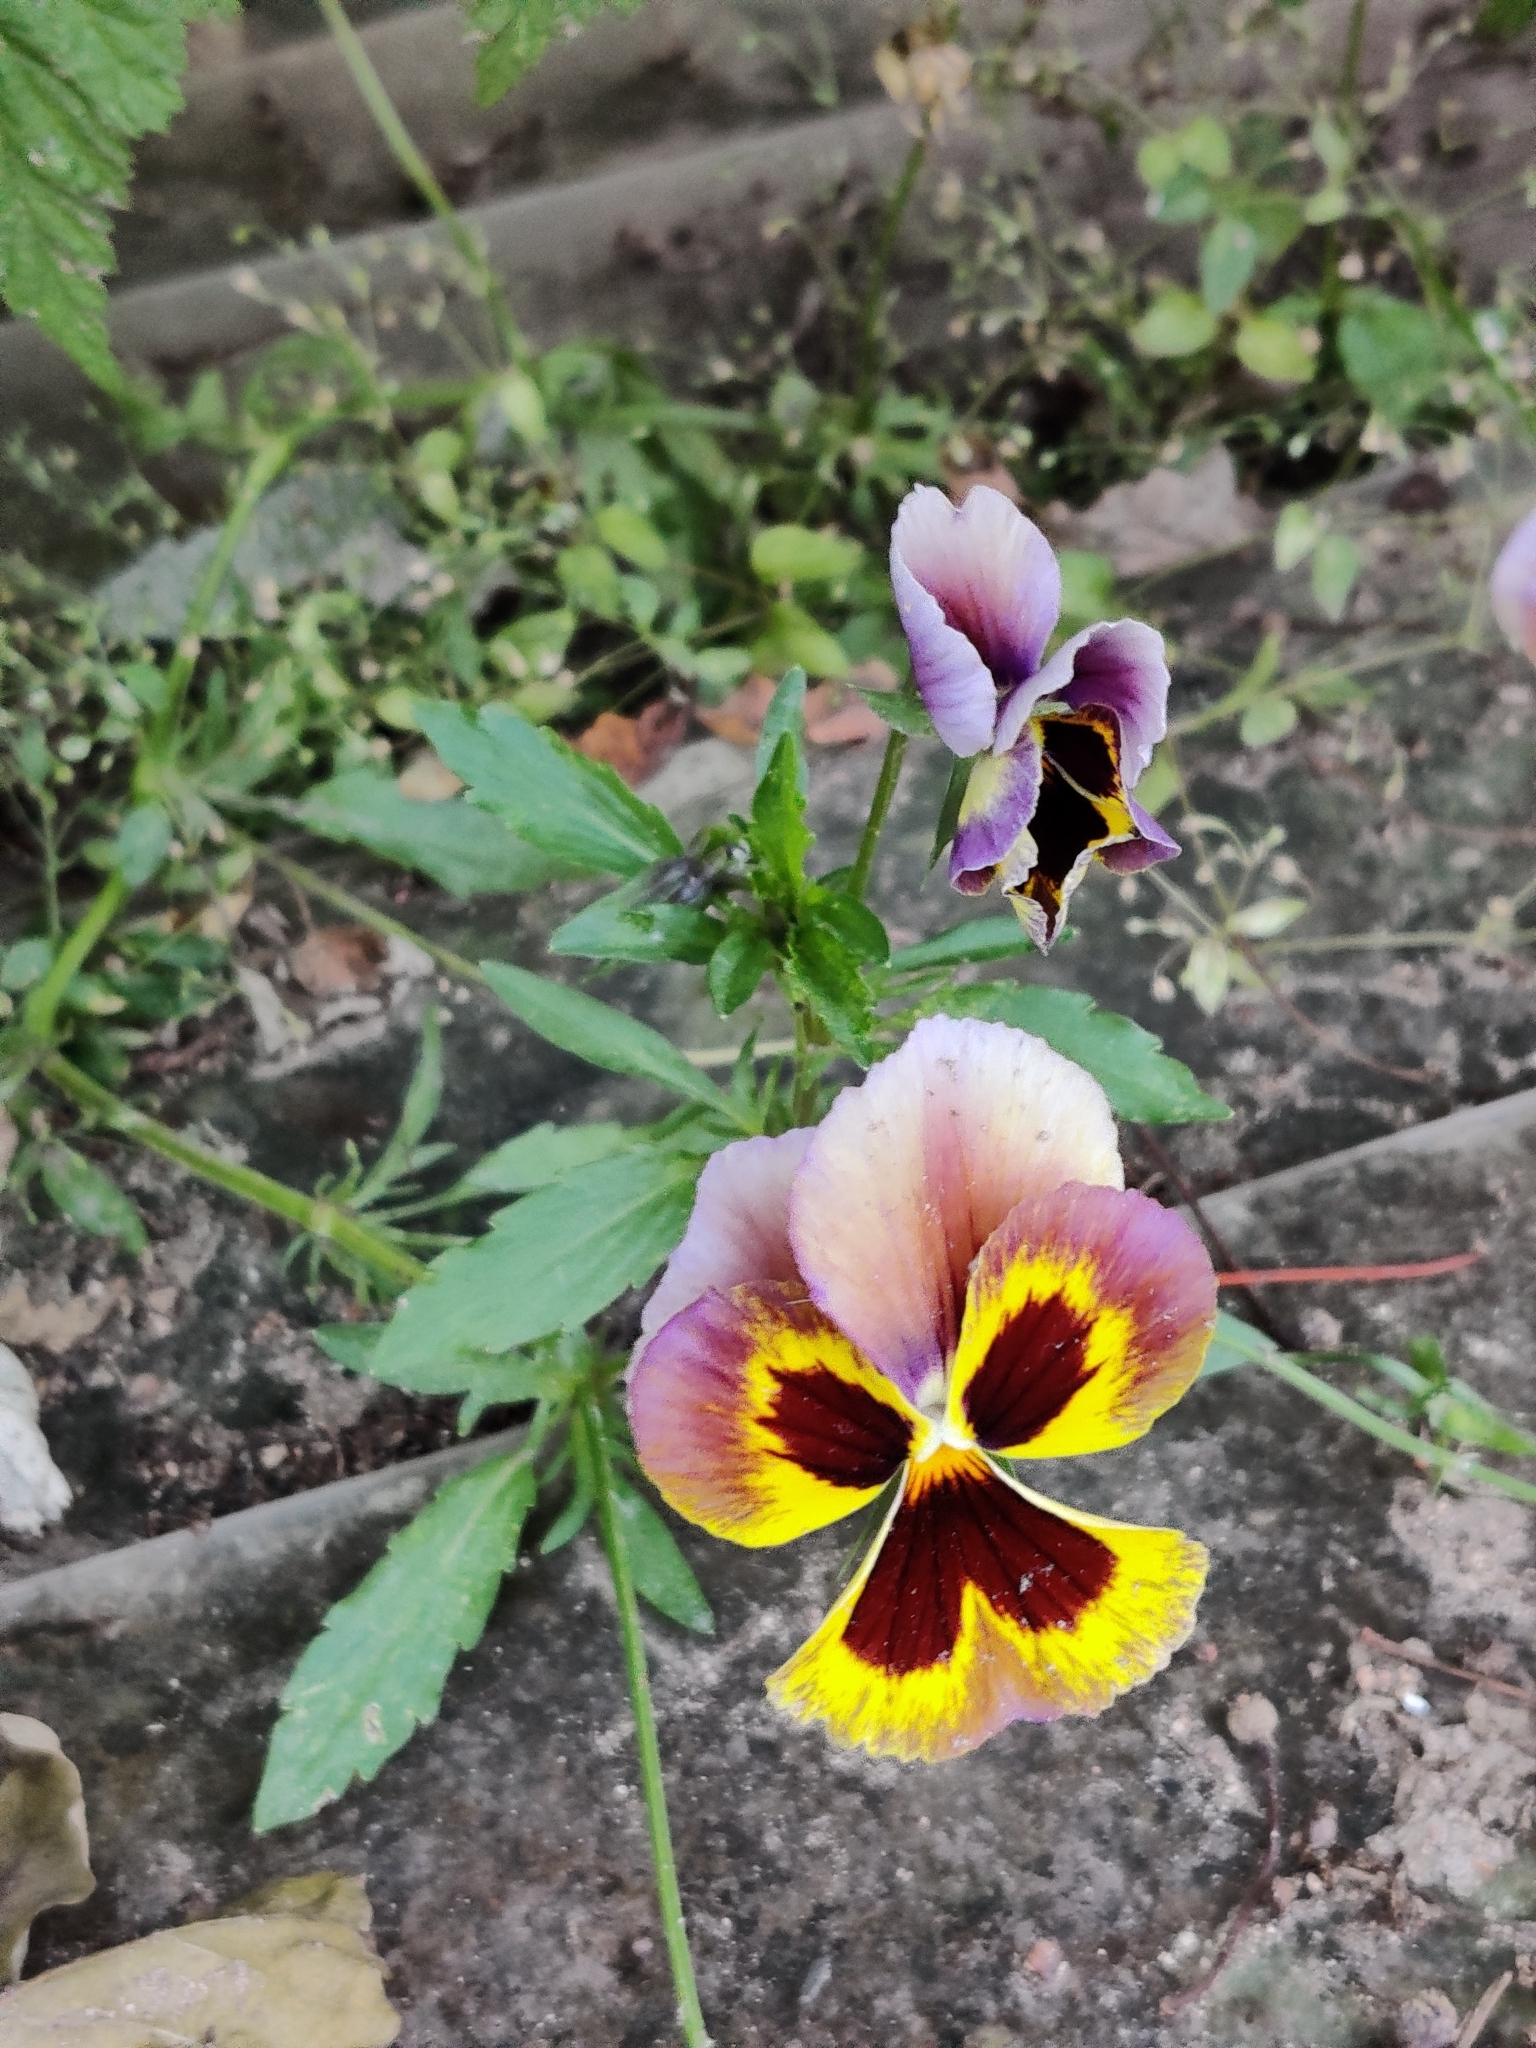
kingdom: Plantae
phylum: Tracheophyta
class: Magnoliopsida
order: Malpighiales
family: Violaceae
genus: Viola
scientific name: Viola wittrockiana
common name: Garden pansy
